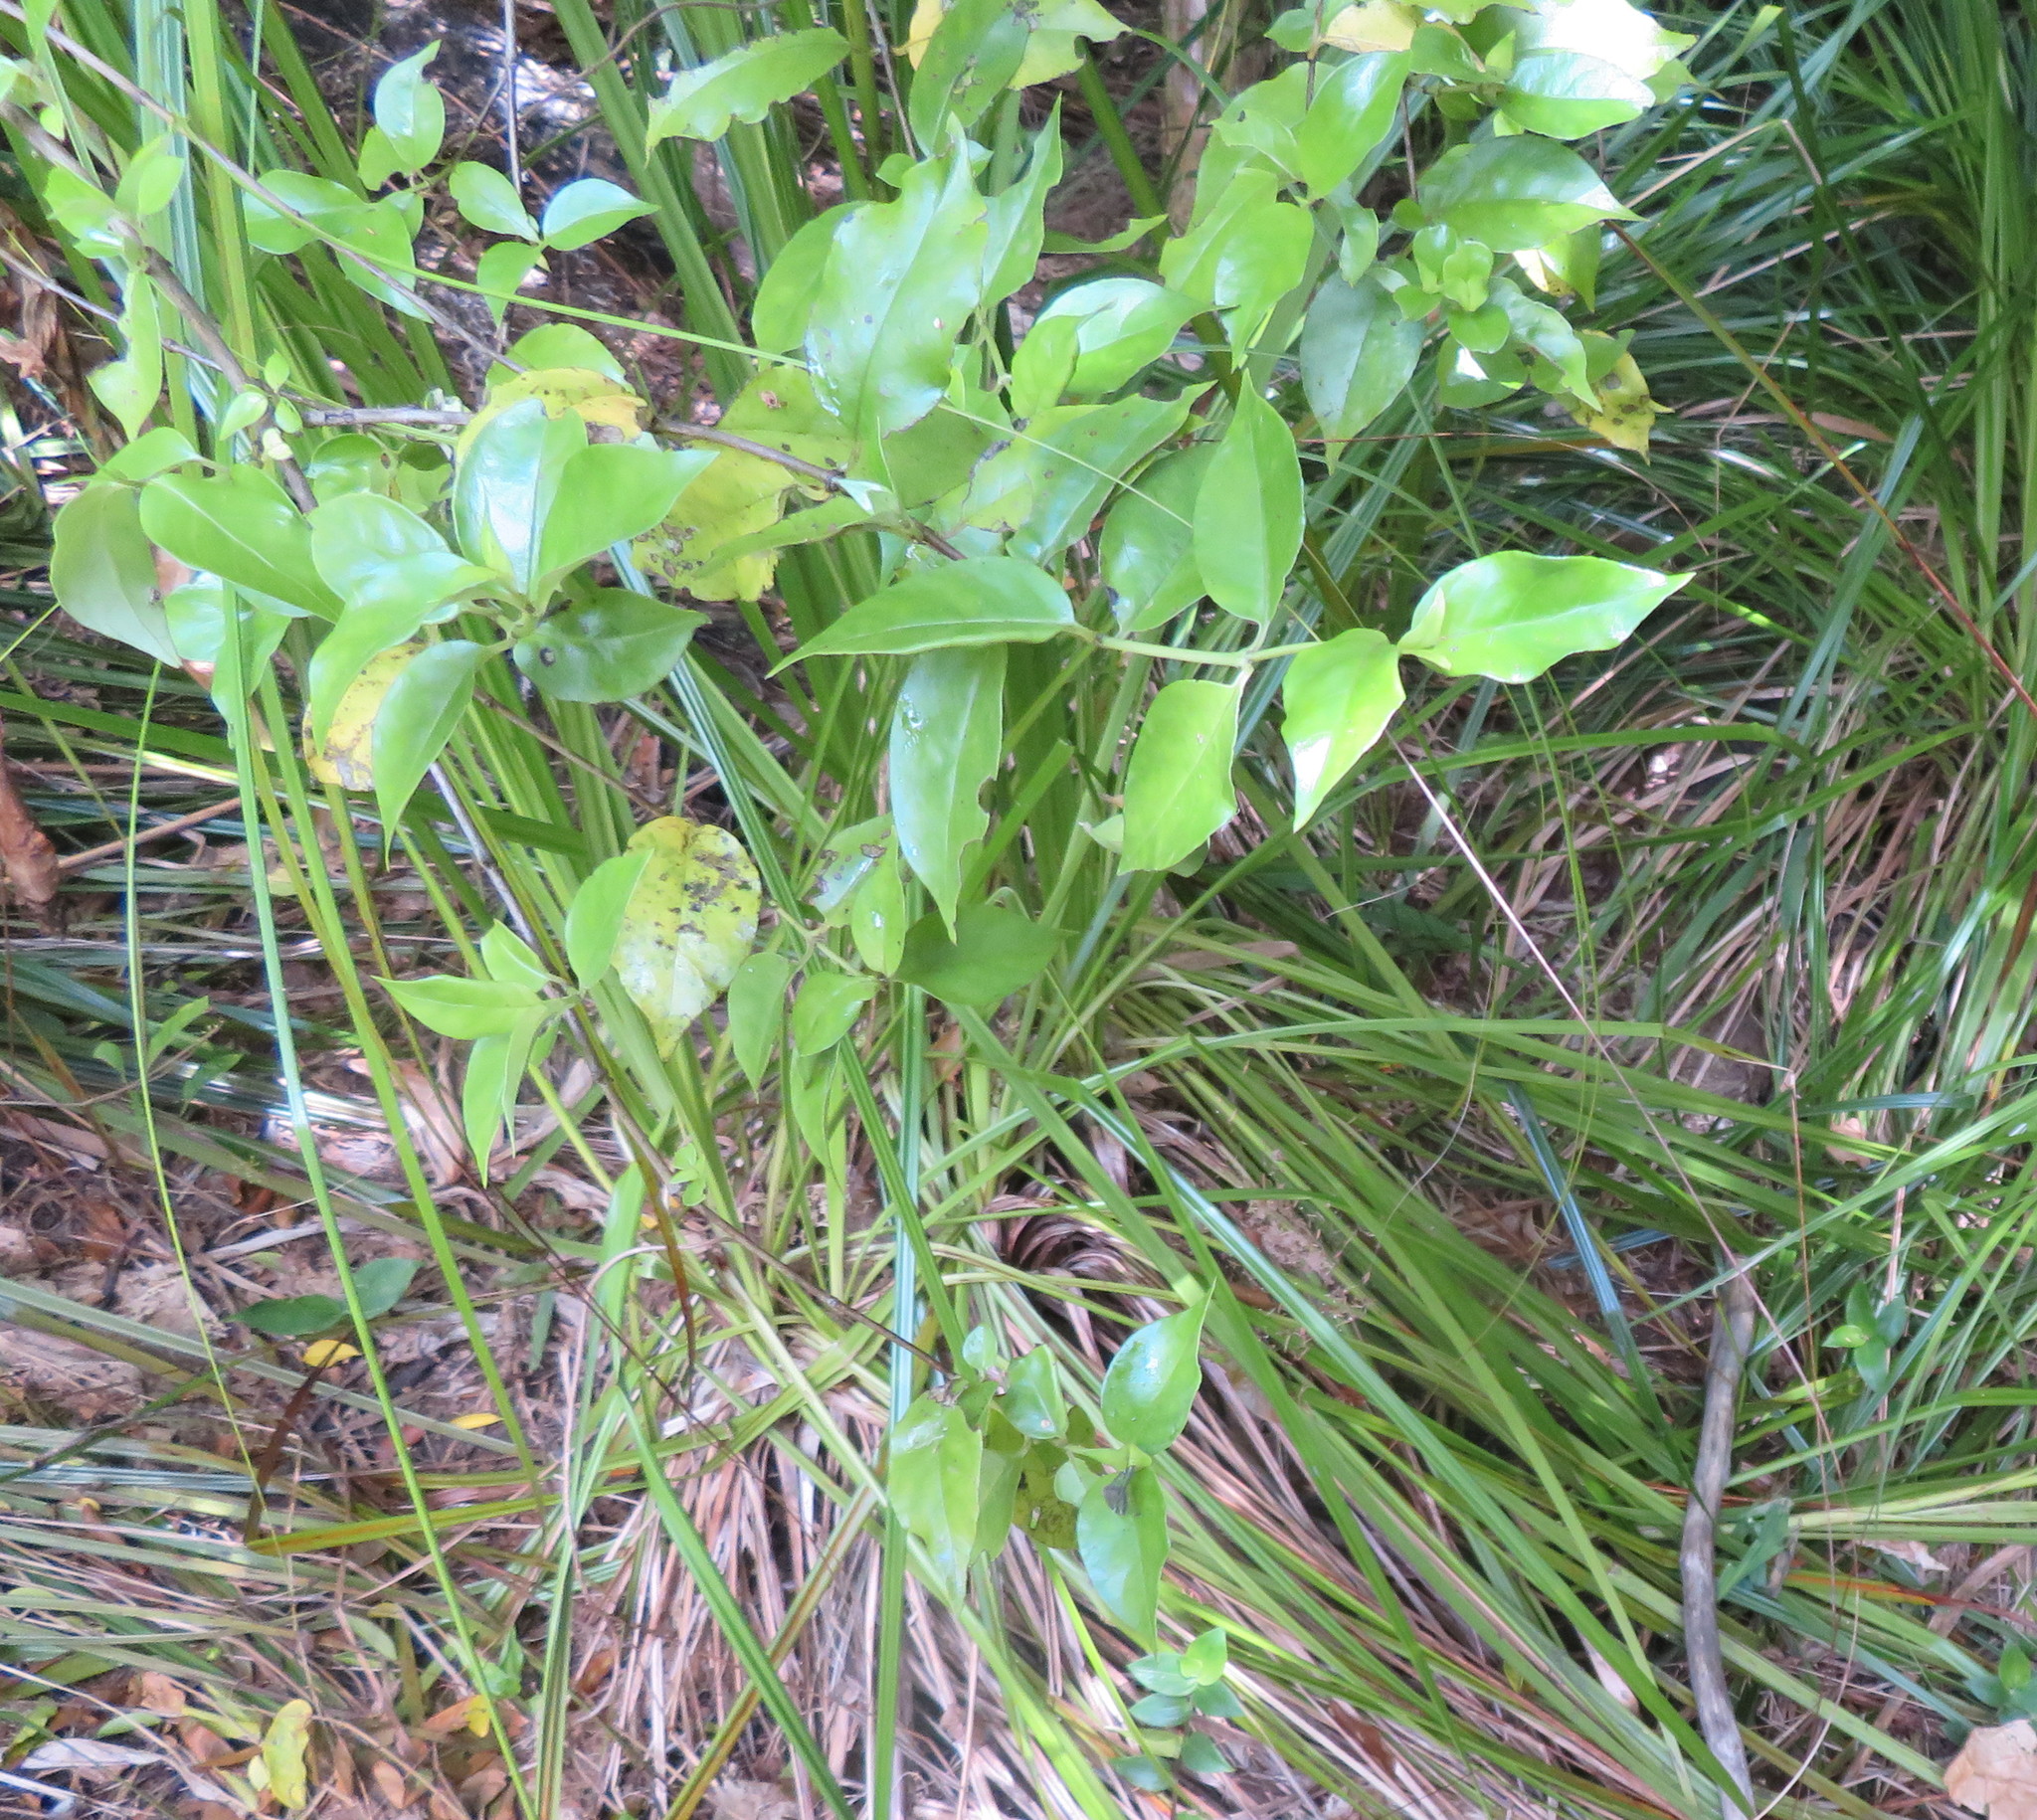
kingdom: Plantae
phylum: Tracheophyta
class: Magnoliopsida
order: Gentianales
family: Loganiaceae
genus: Geniostoma
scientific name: Geniostoma ligustrifolium
